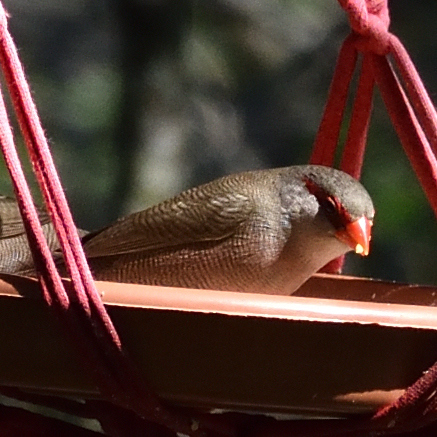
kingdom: Animalia
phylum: Chordata
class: Aves
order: Passeriformes
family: Estrildidae
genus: Estrilda
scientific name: Estrilda astrild
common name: Common waxbill
